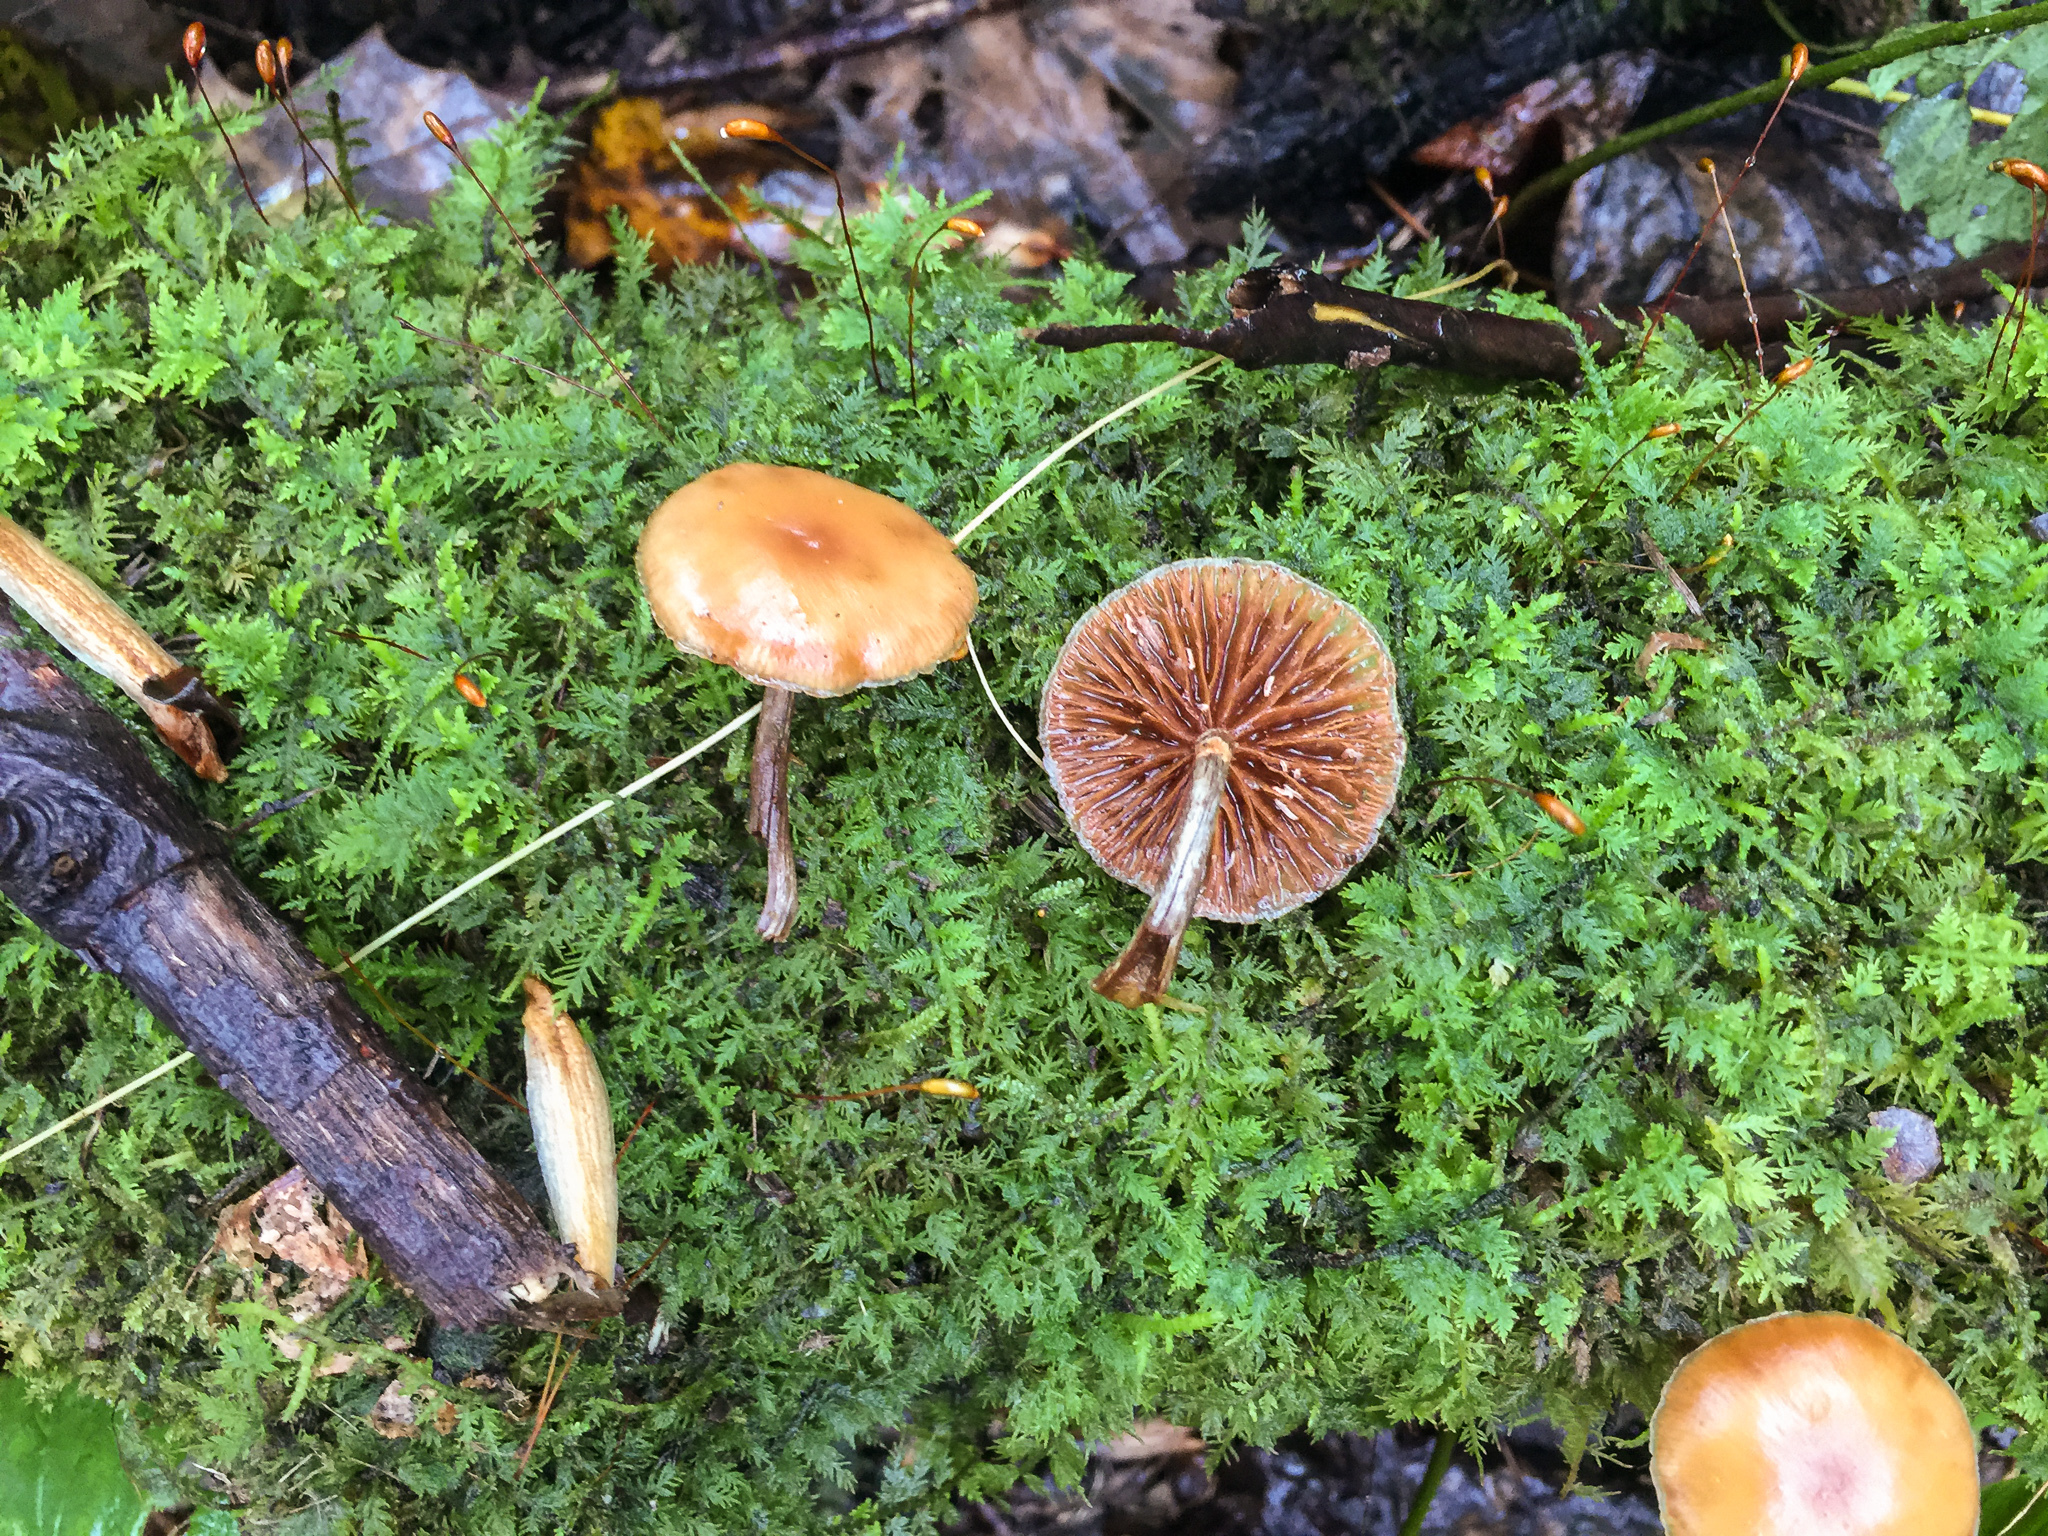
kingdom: Fungi
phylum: Basidiomycota
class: Agaricomycetes
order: Agaricales
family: Hymenogastraceae
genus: Galerina
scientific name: Galerina marginata
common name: Funeral bell
